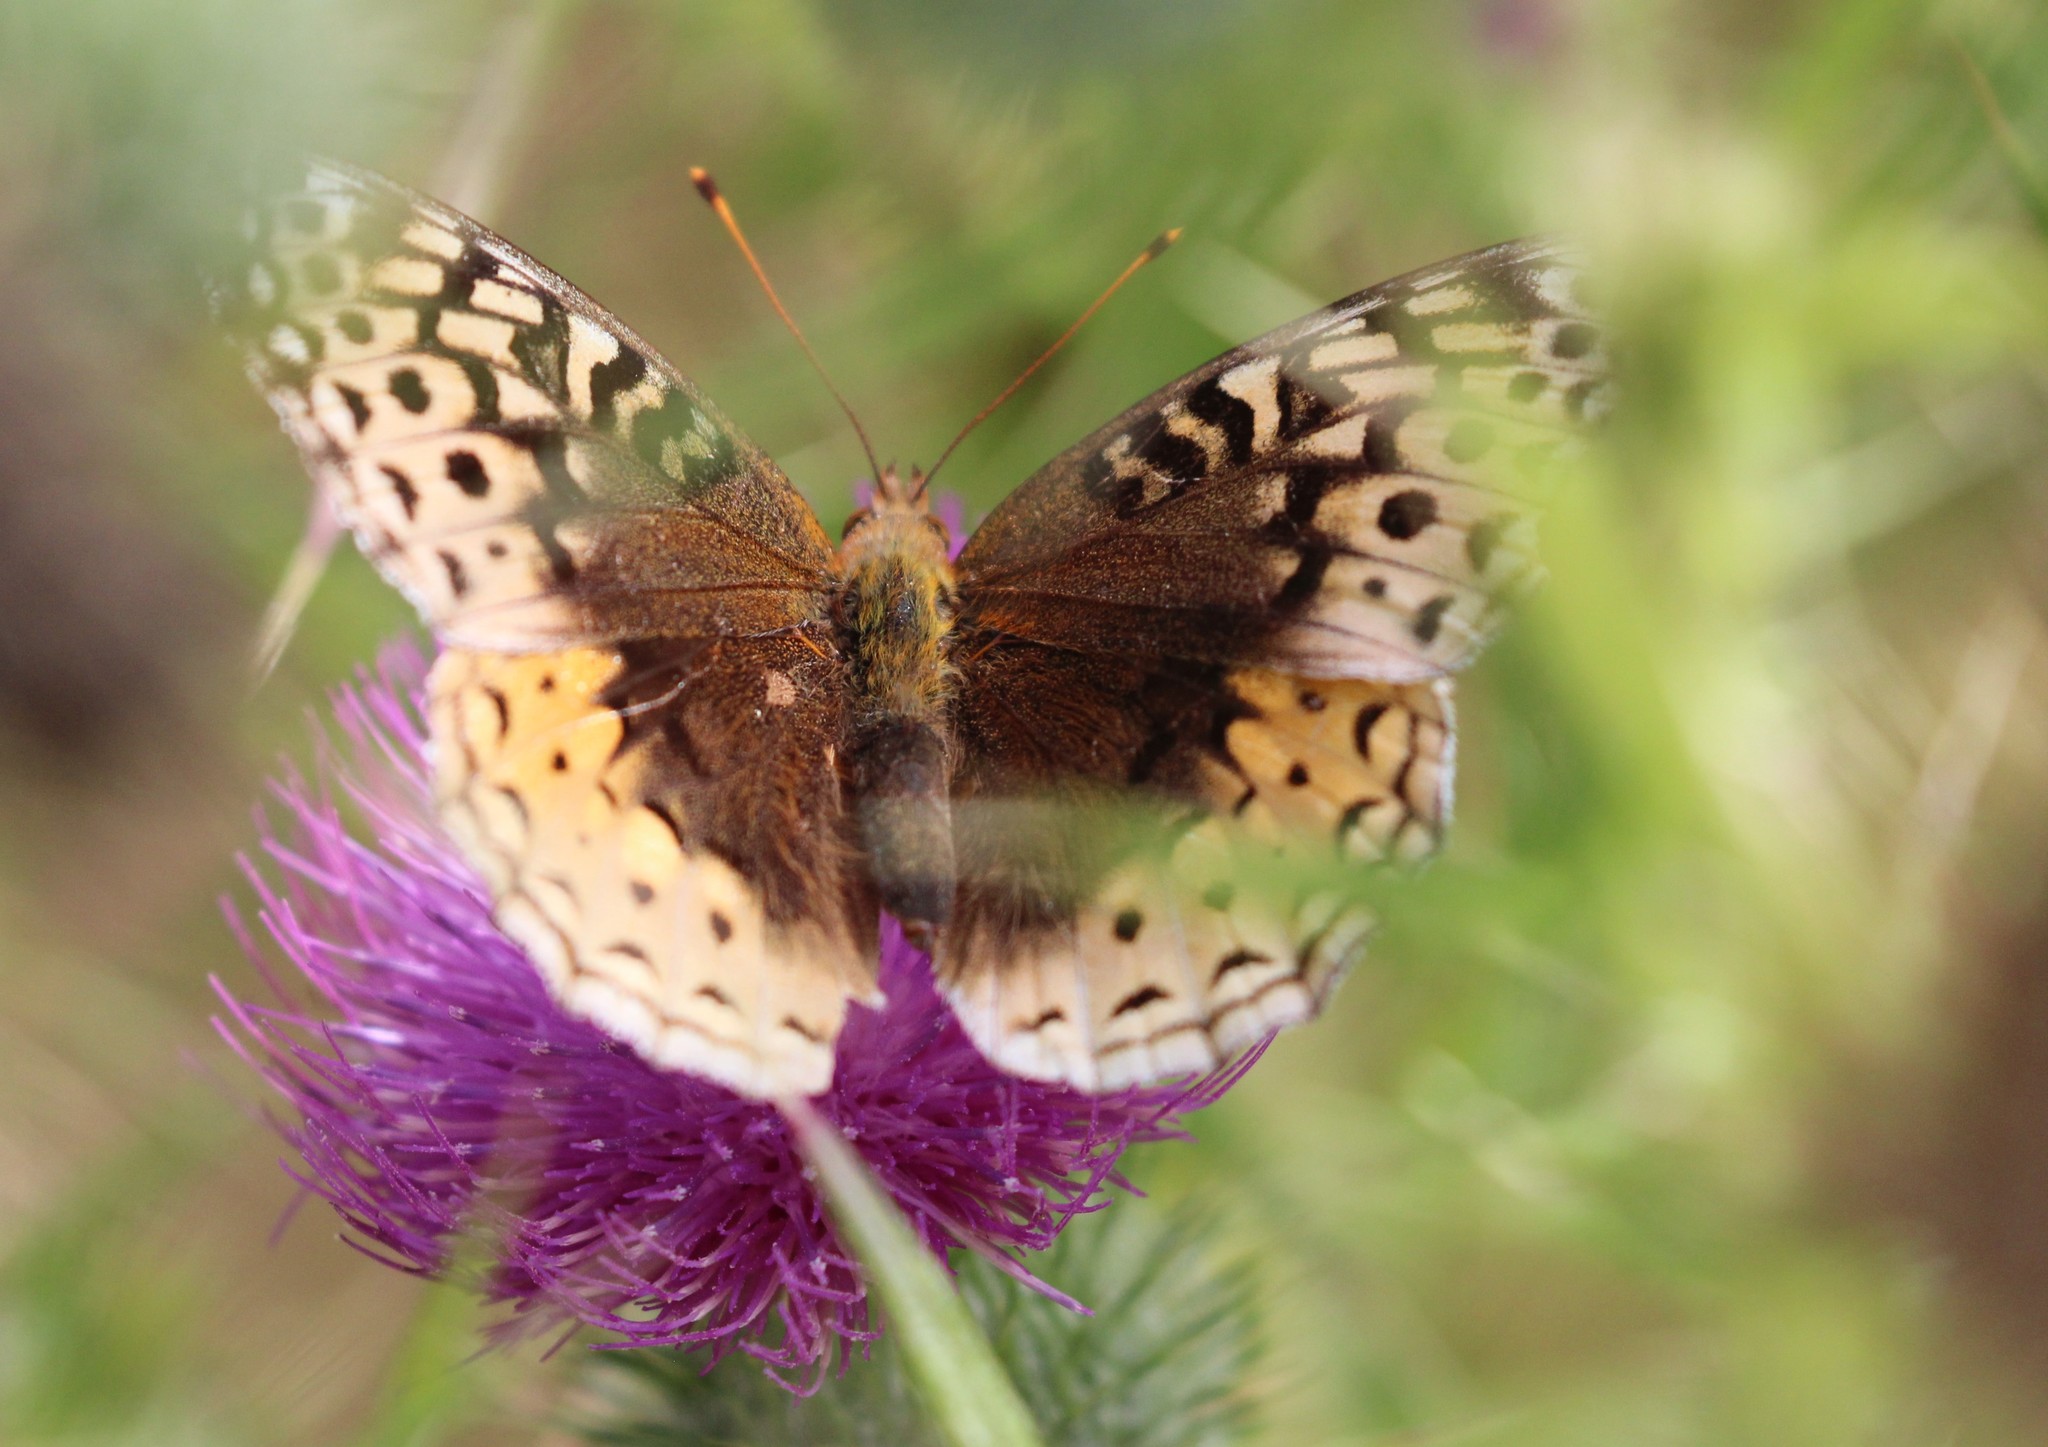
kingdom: Animalia
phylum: Arthropoda
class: Insecta
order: Lepidoptera
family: Nymphalidae
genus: Speyeria
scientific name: Speyeria cybele
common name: Great spangled fritillary
